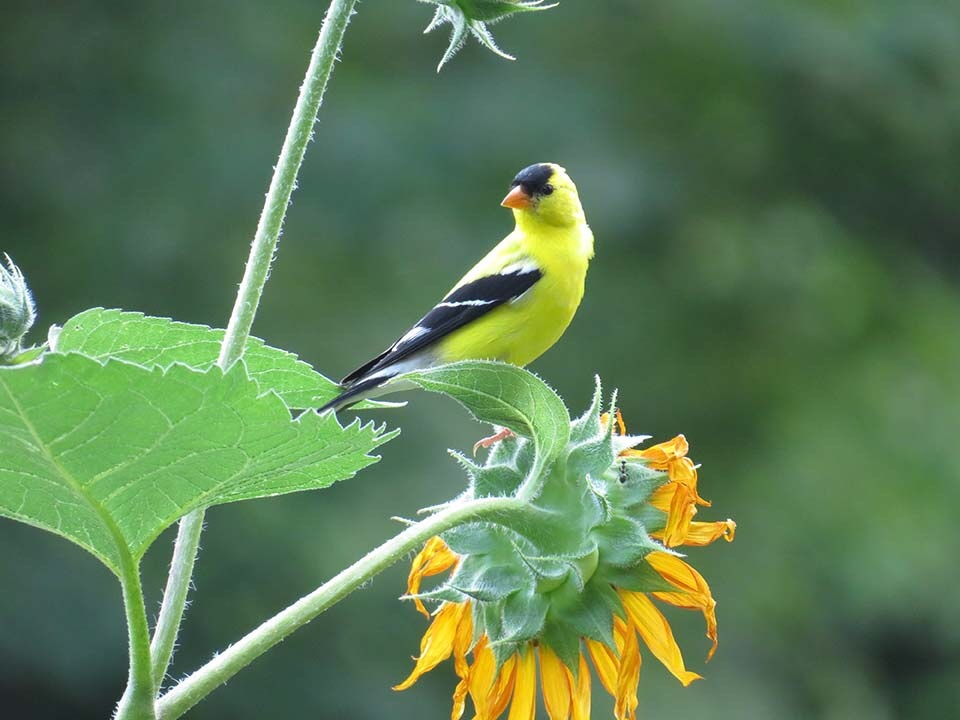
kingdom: Animalia
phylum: Chordata
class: Aves
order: Passeriformes
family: Fringillidae
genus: Spinus
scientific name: Spinus tristis
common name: American goldfinch
